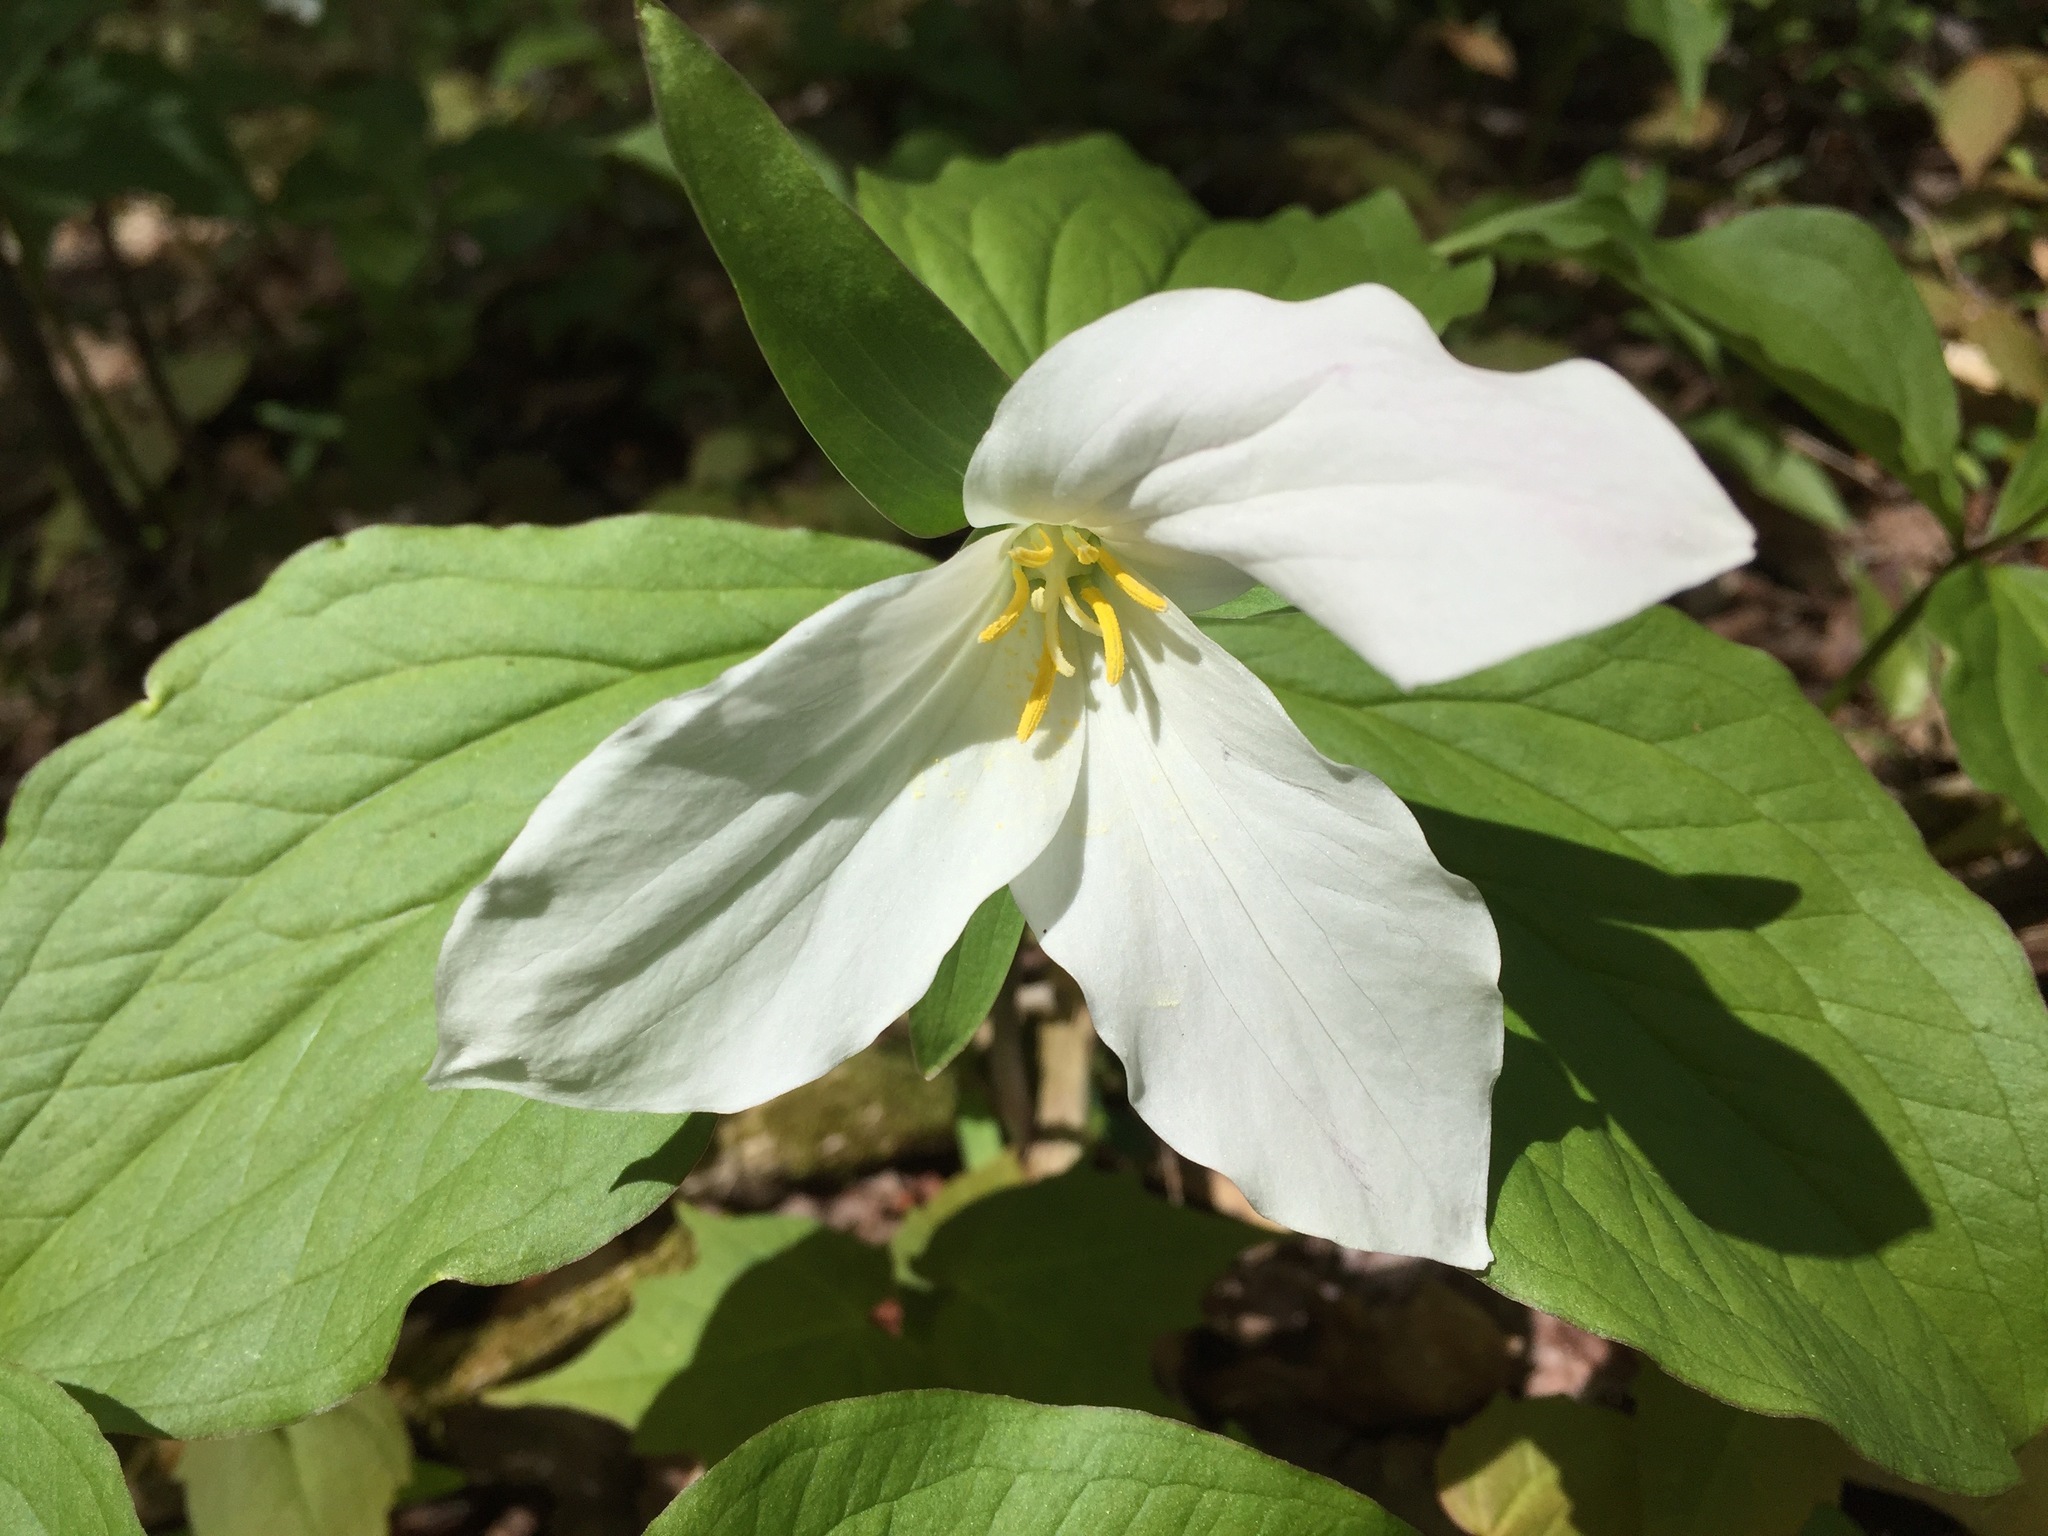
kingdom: Plantae
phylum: Tracheophyta
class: Liliopsida
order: Liliales
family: Melanthiaceae
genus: Trillium
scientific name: Trillium grandiflorum
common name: Great white trillium
